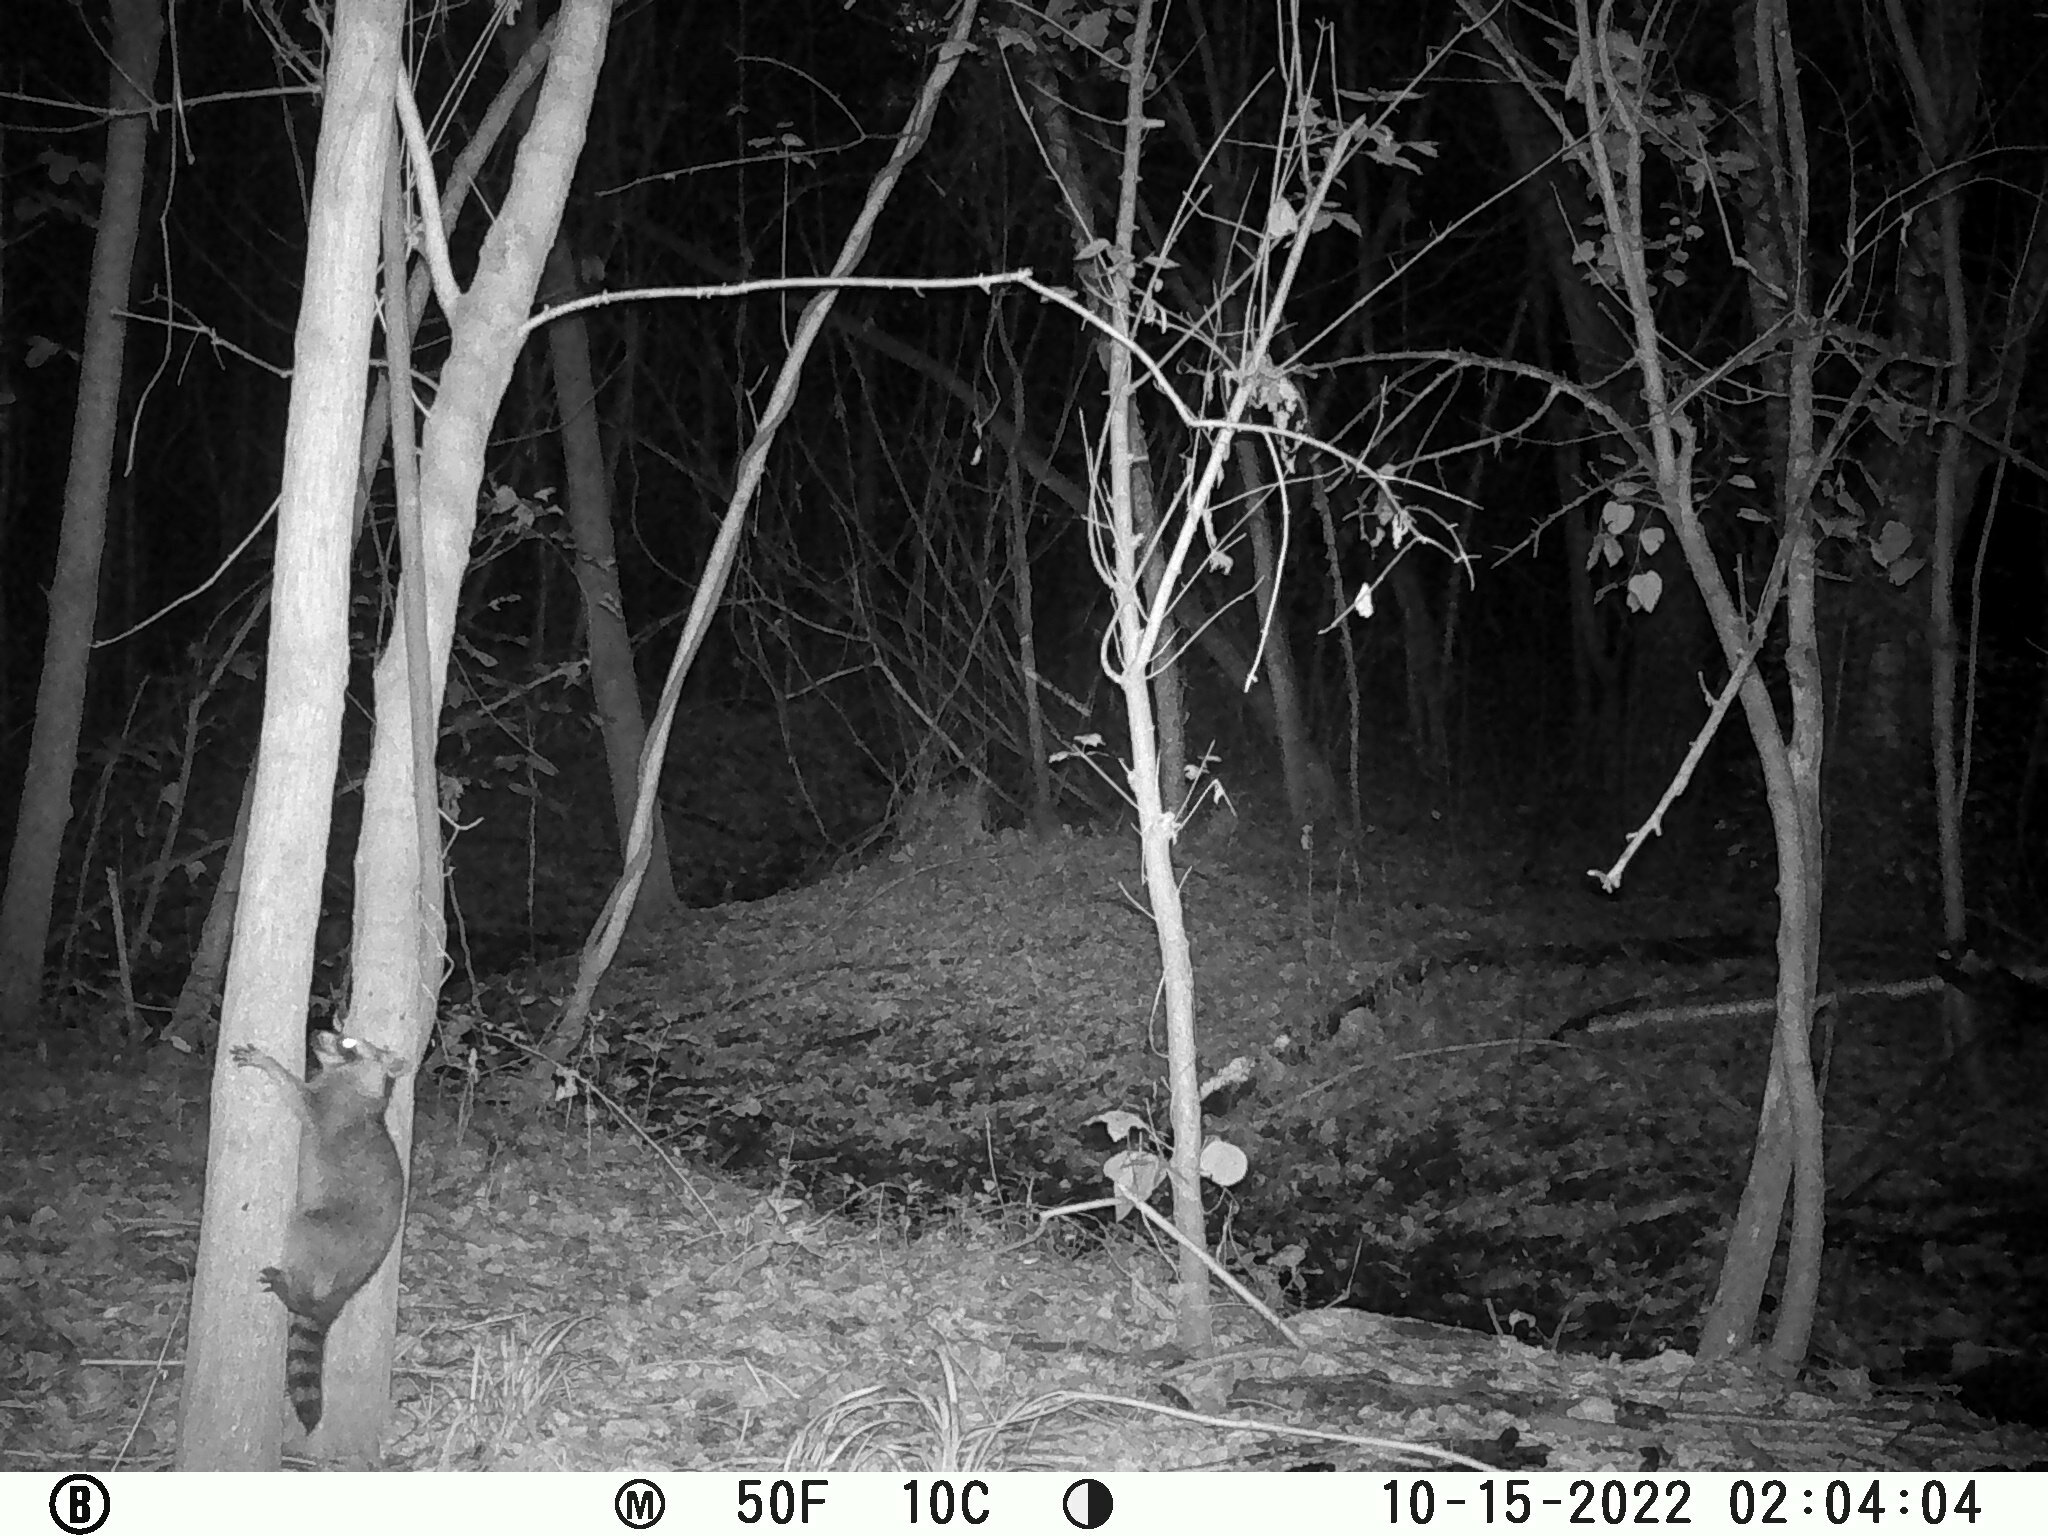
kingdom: Animalia
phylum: Chordata
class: Mammalia
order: Carnivora
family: Procyonidae
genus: Procyon
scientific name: Procyon lotor
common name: Raccoon
